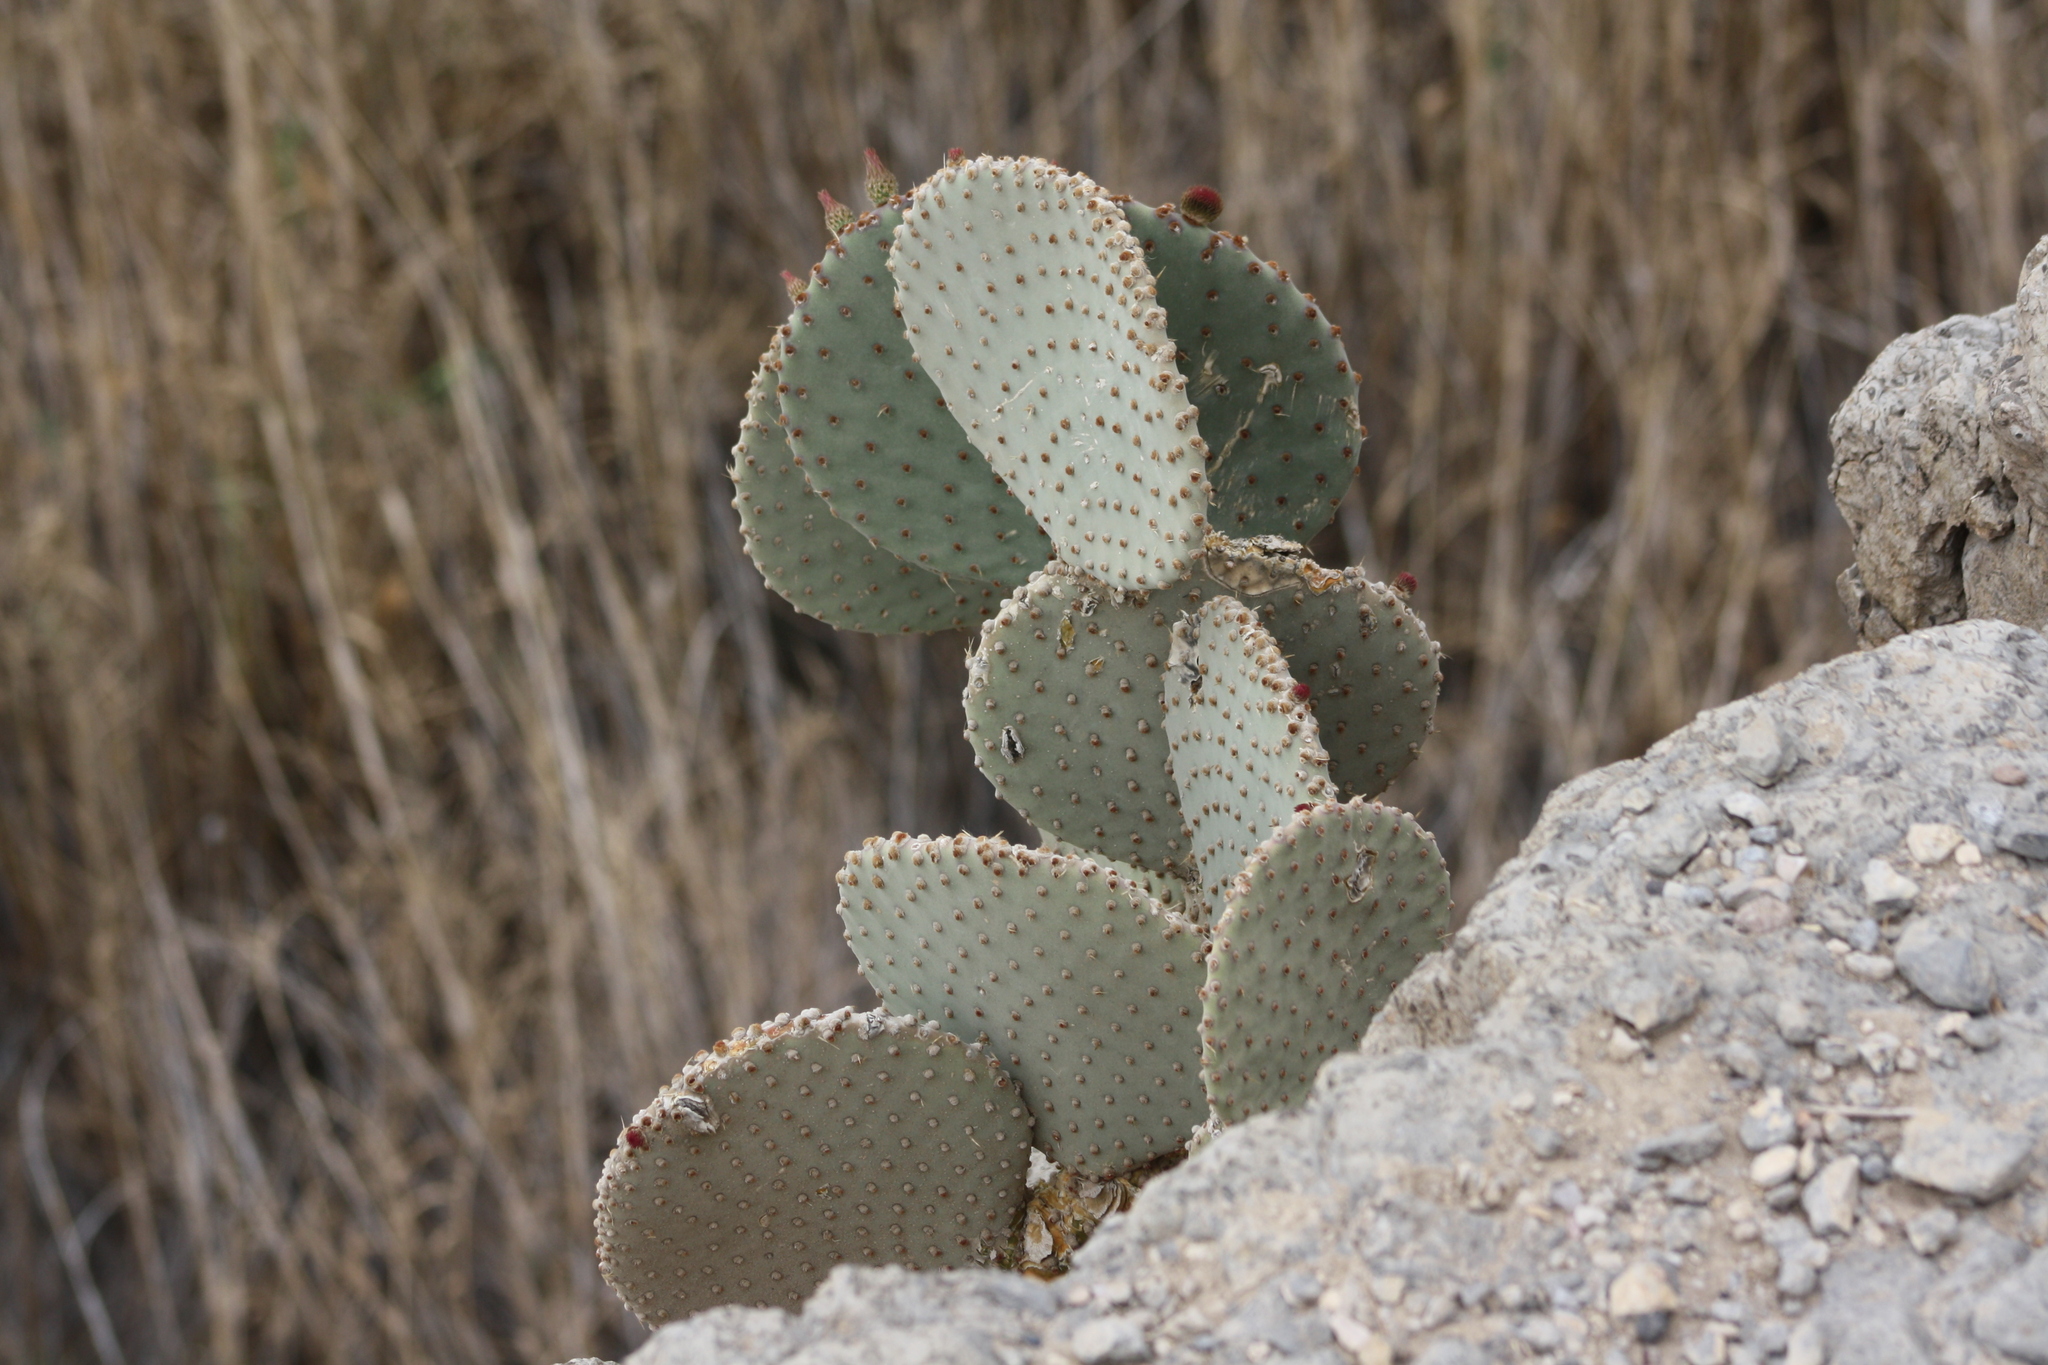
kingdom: Plantae
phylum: Tracheophyta
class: Magnoliopsida
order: Caryophyllales
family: Cactaceae
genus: Opuntia
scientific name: Opuntia rufida
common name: Blind pricklypear
